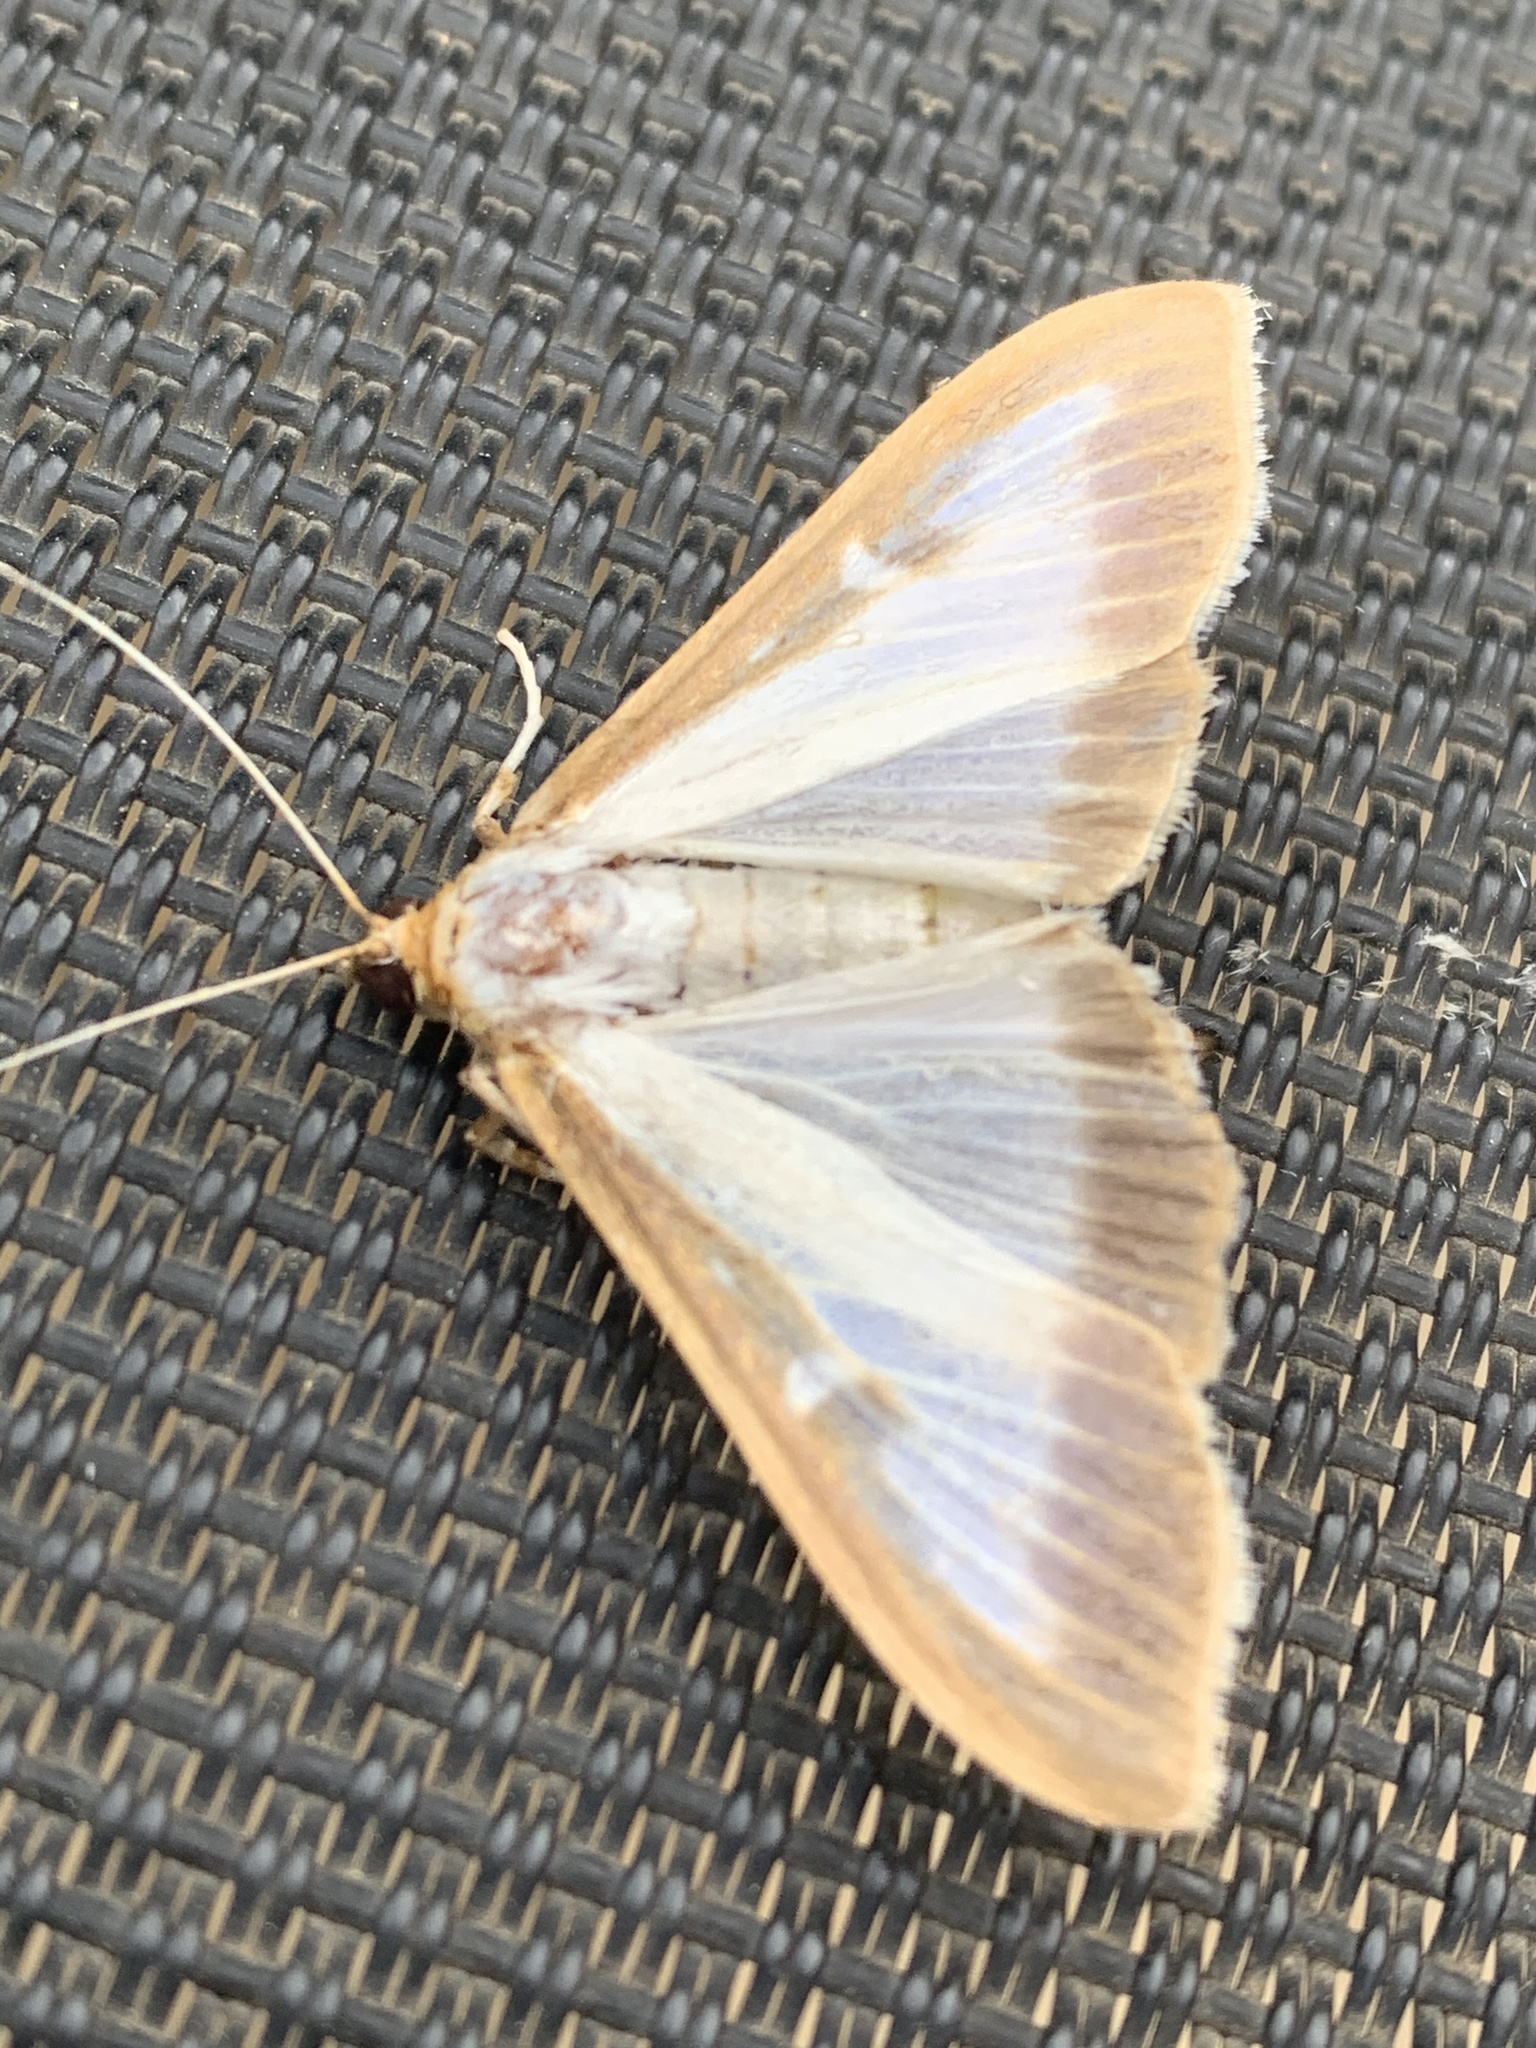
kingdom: Animalia
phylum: Arthropoda
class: Insecta
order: Lepidoptera
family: Crambidae
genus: Cydalima
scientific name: Cydalima perspectalis
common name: Box tree moth
